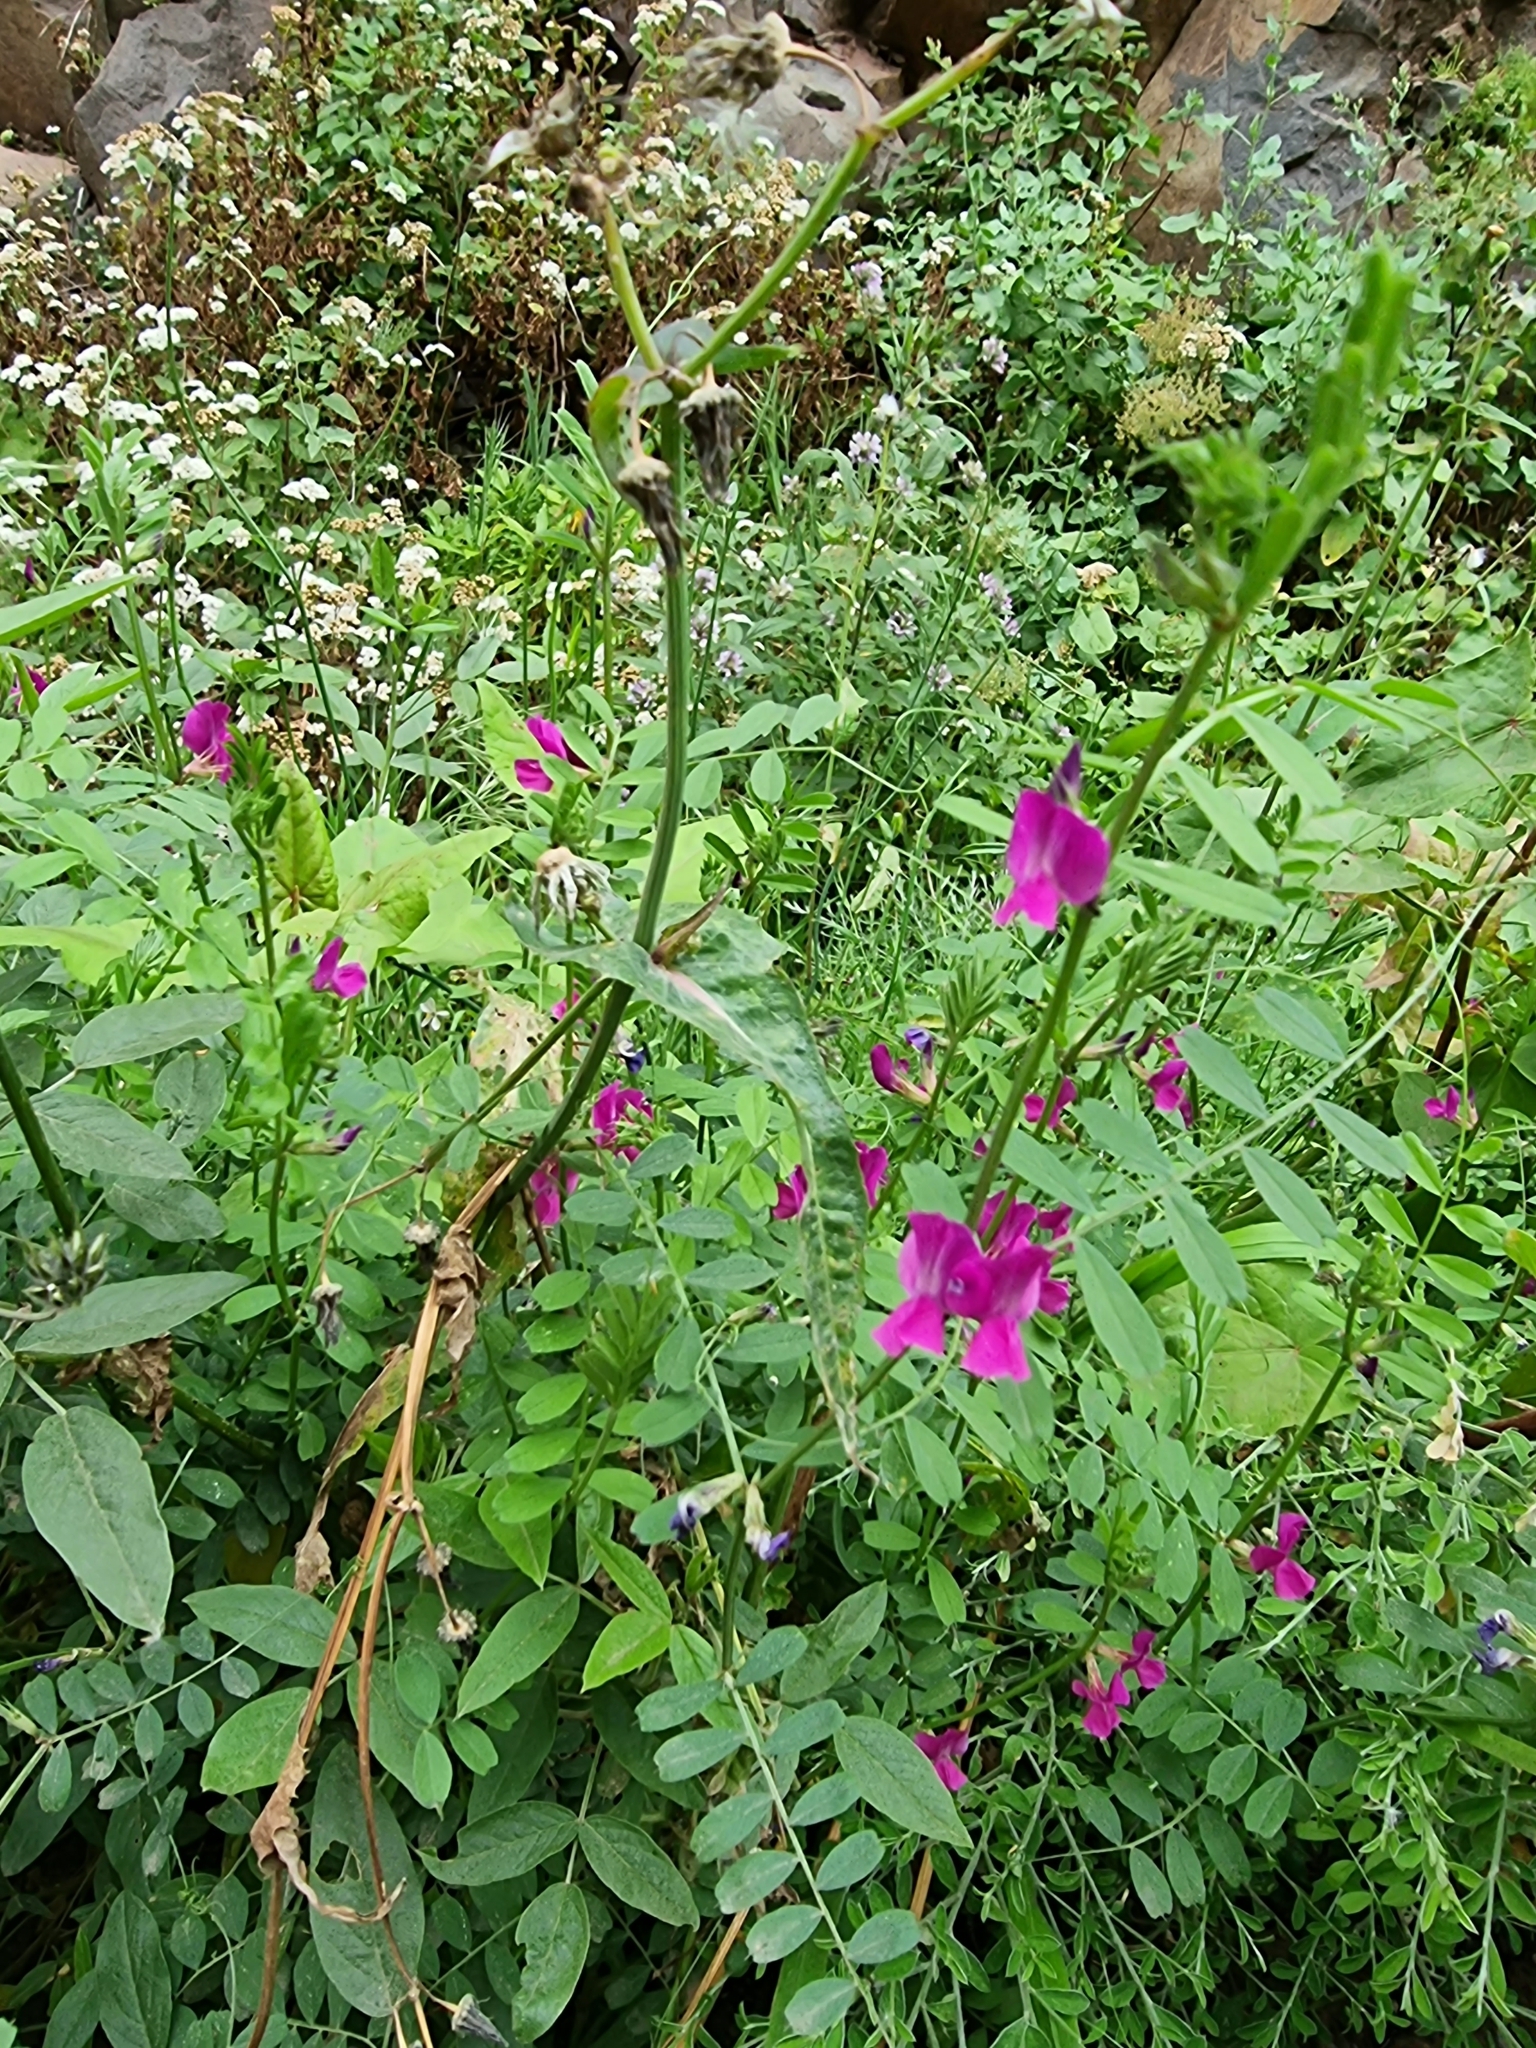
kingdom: Plantae
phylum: Tracheophyta
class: Magnoliopsida
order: Fabales
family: Fabaceae
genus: Vicia
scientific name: Vicia sativa
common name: Garden vetch
